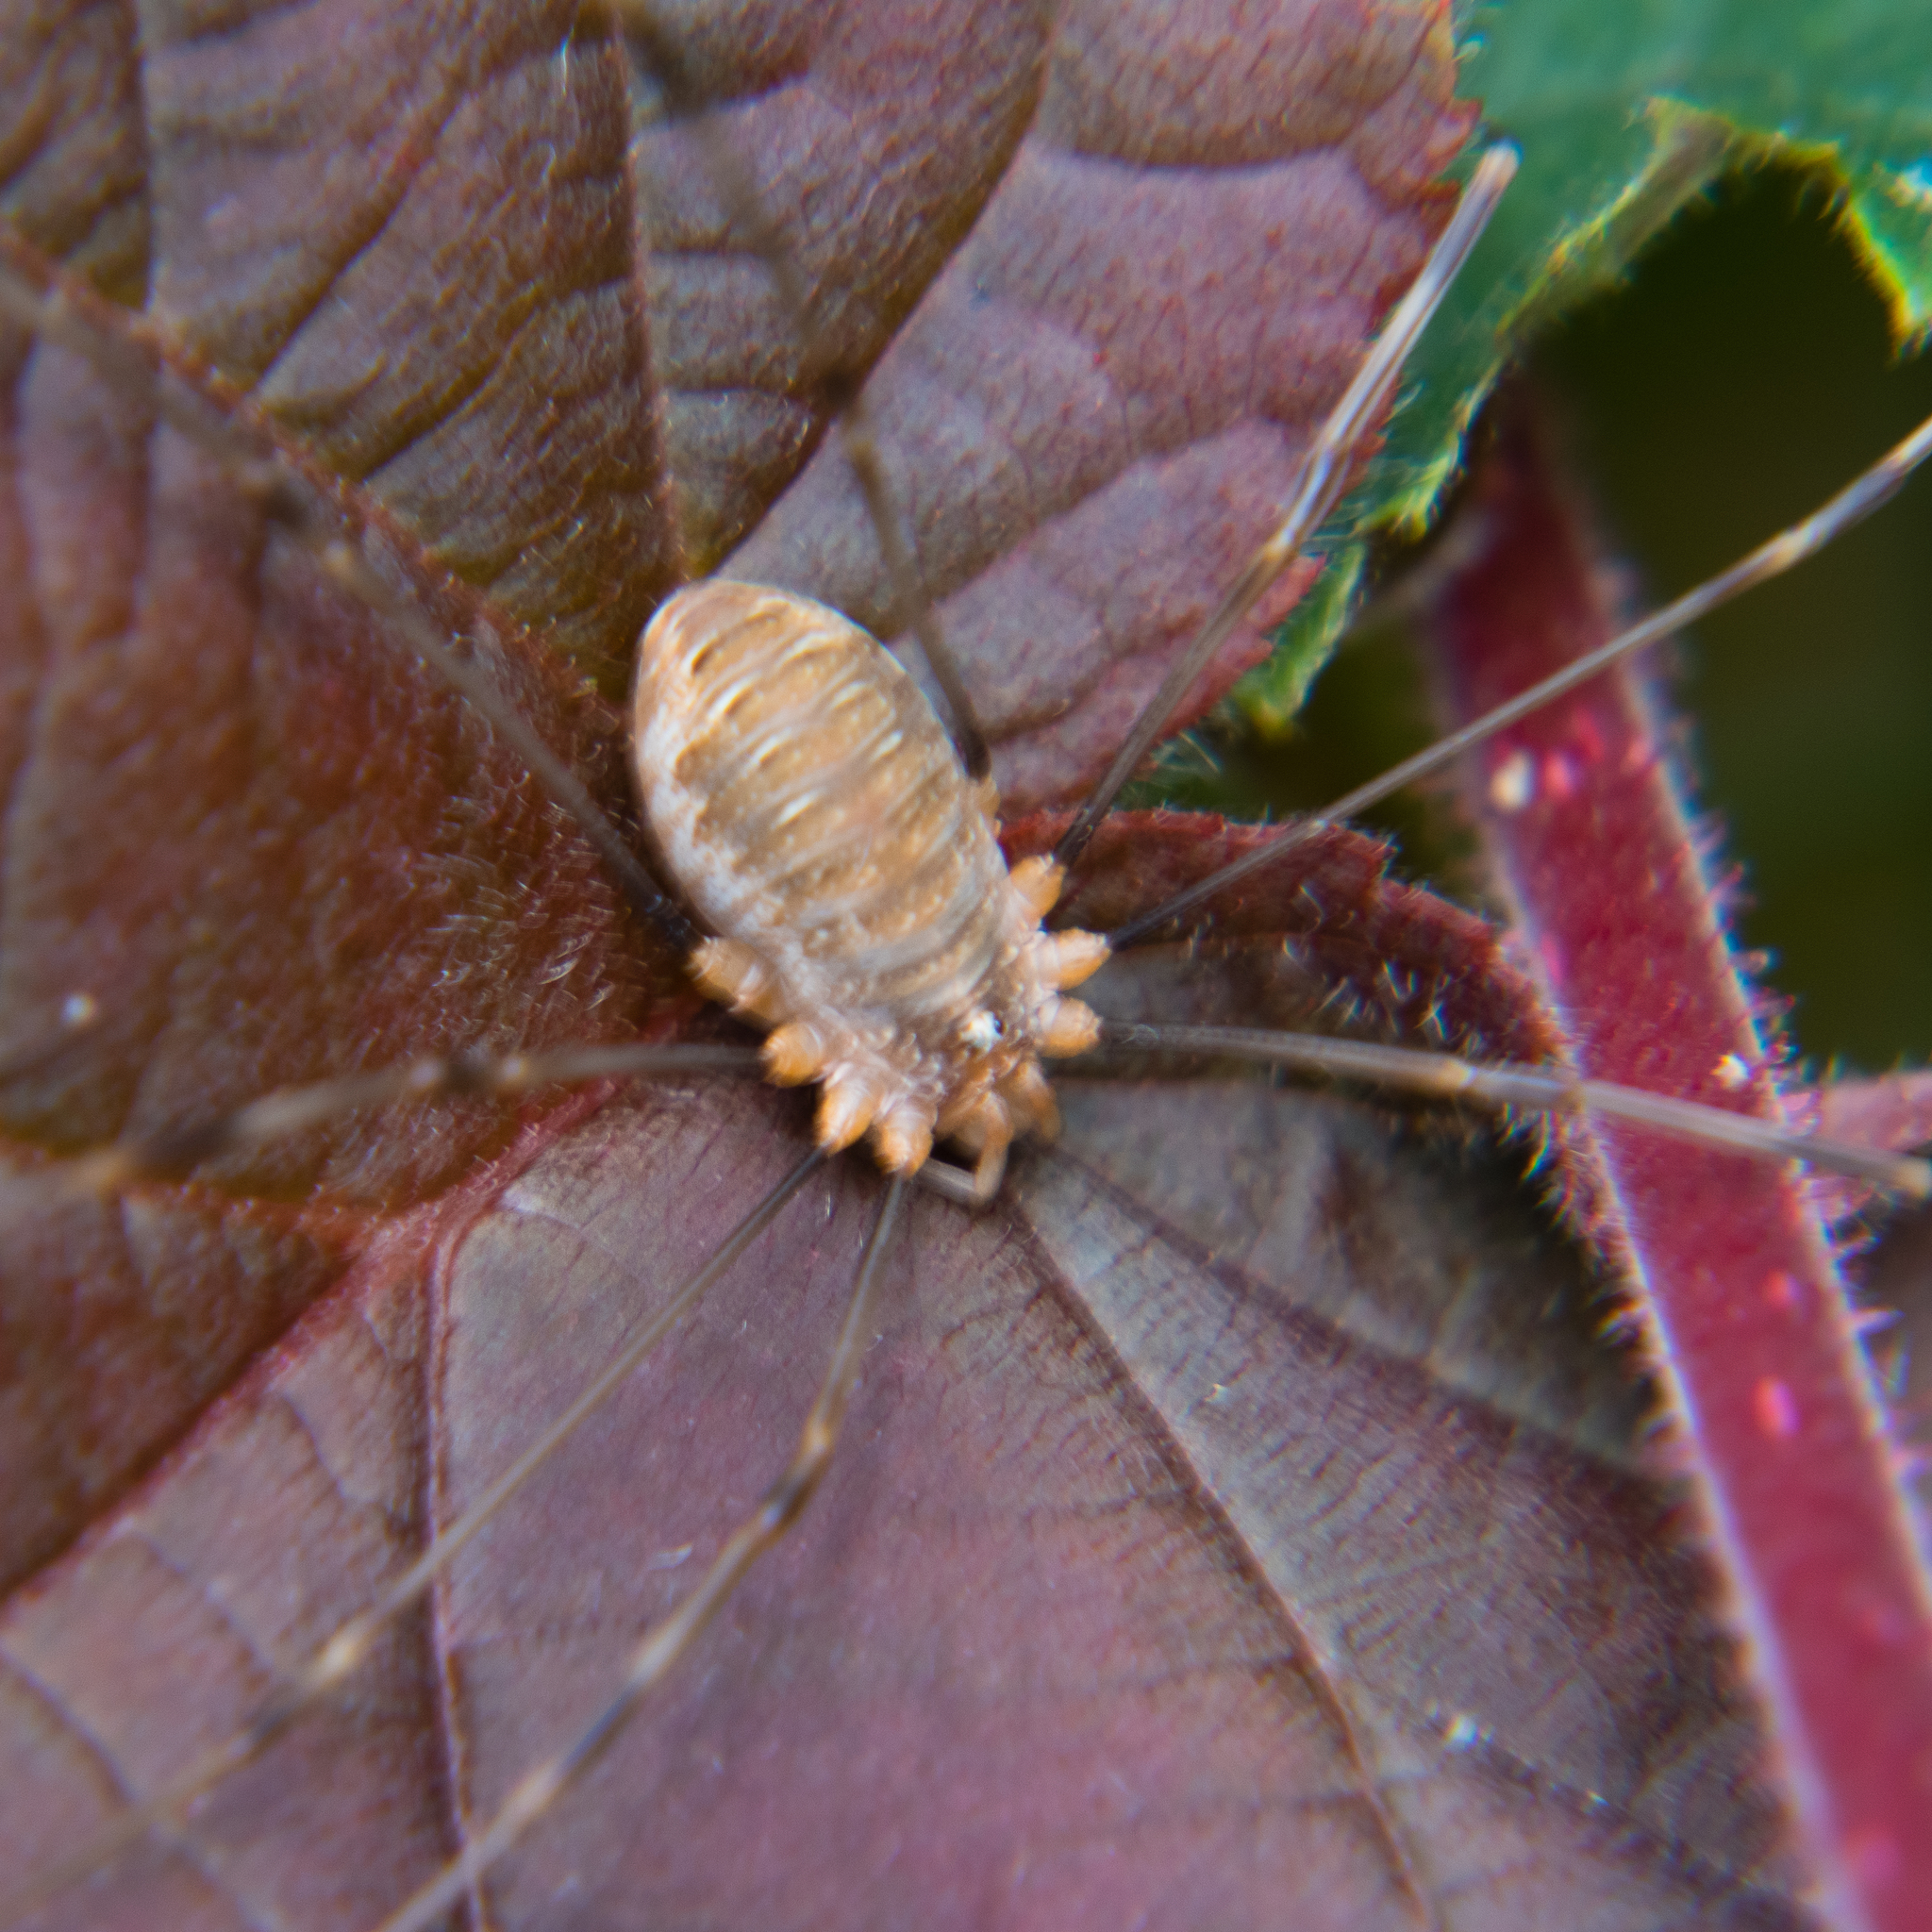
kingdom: Animalia
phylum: Arthropoda
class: Arachnida
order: Opiliones
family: Phalangiidae
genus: Opilio
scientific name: Opilio canestrinii
